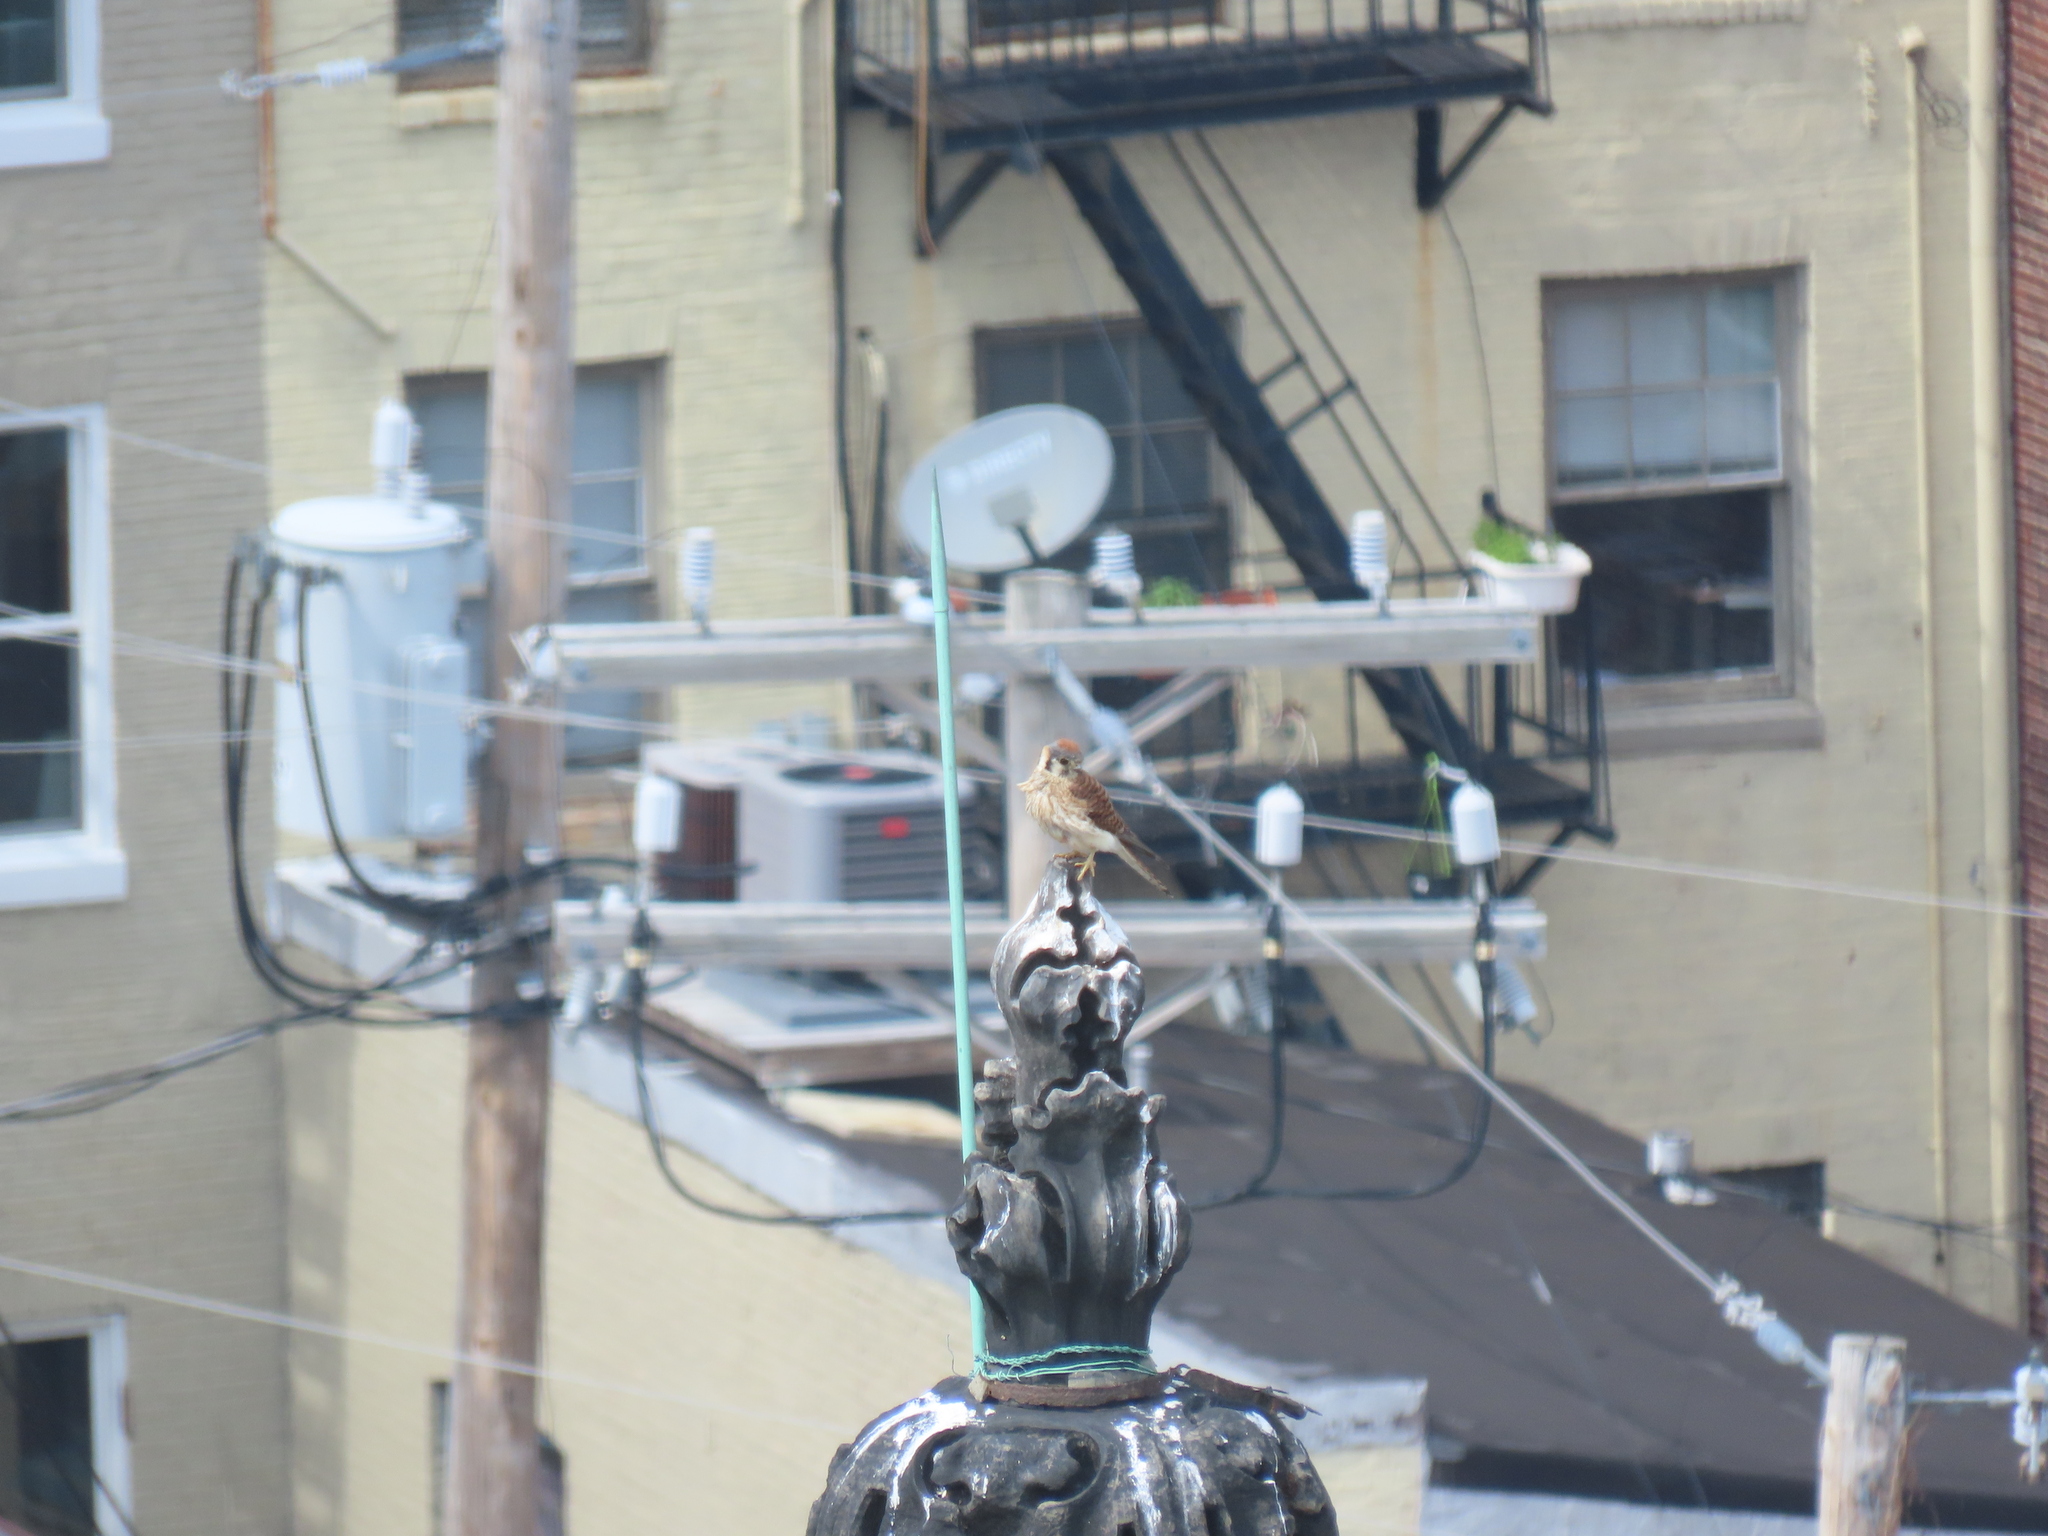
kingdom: Animalia
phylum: Chordata
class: Aves
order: Falconiformes
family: Falconidae
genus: Falco
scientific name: Falco sparverius
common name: American kestrel
